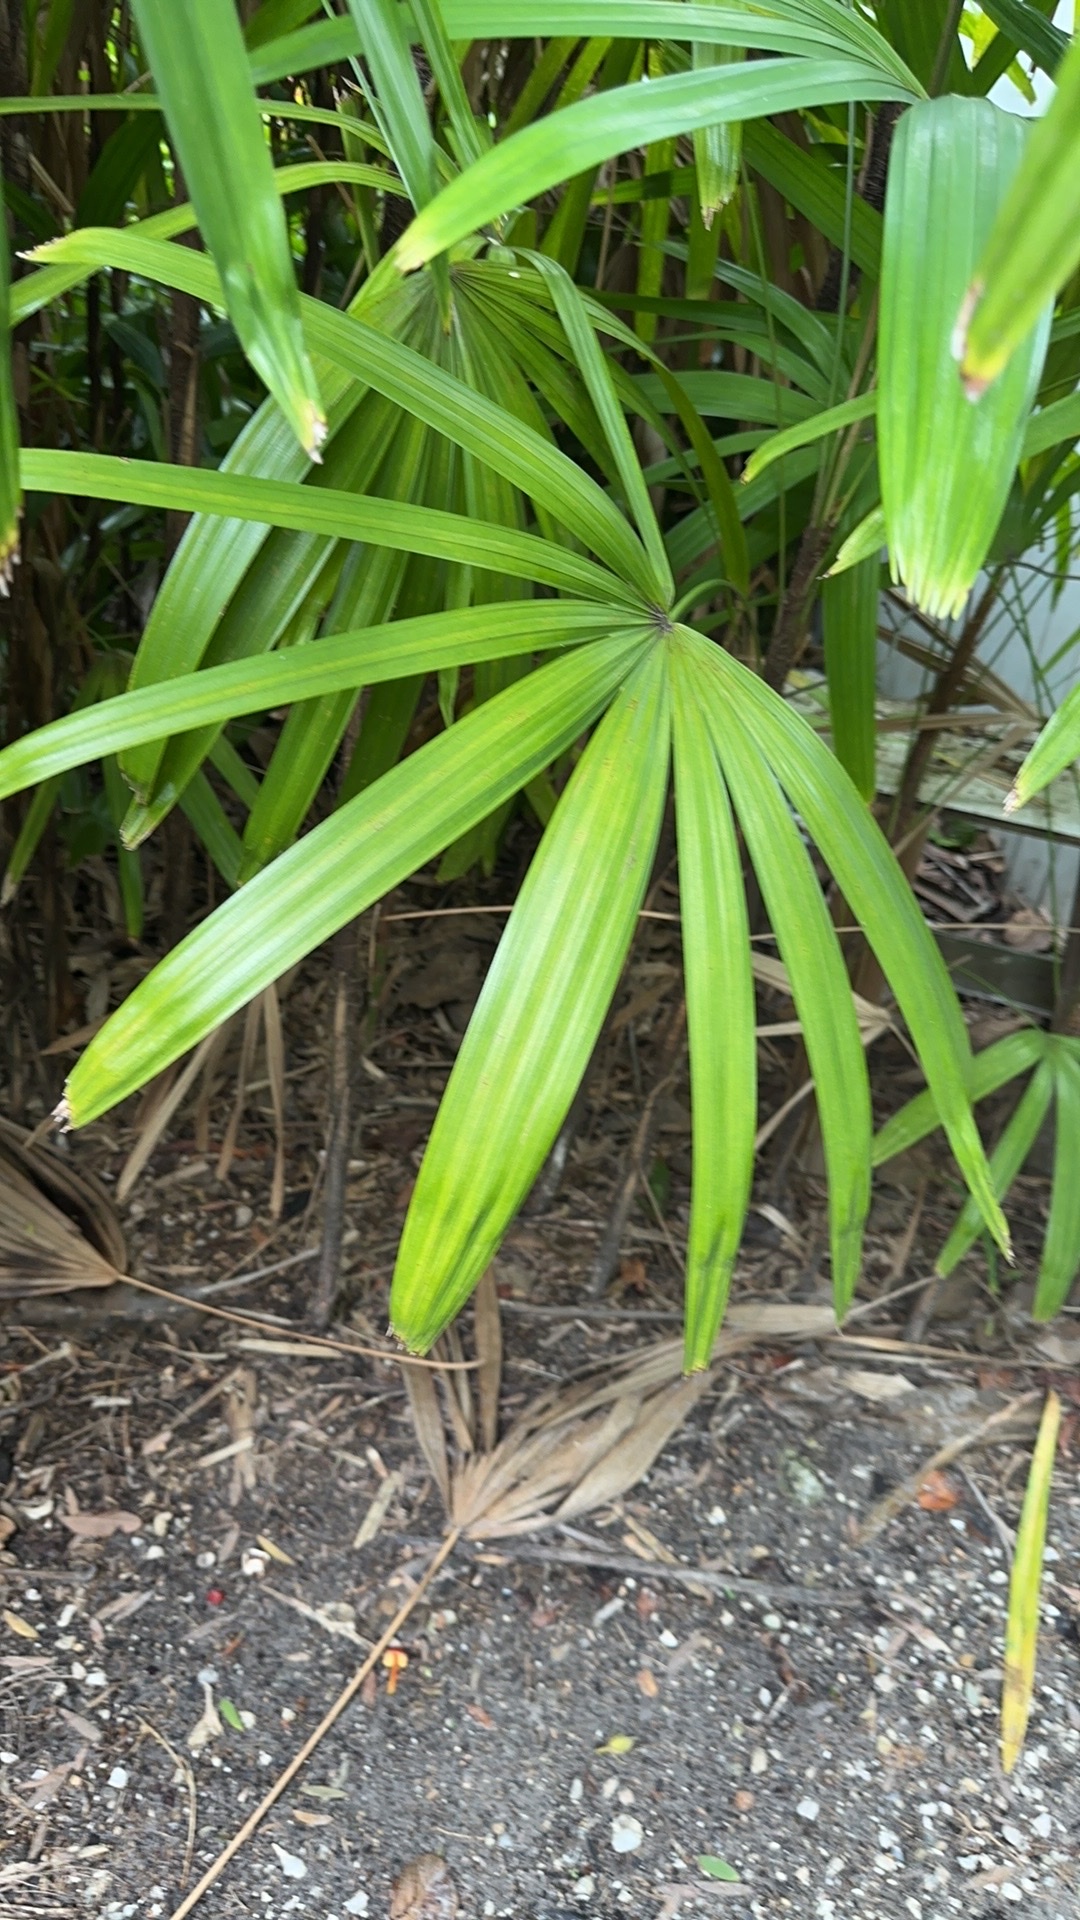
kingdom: Plantae
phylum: Tracheophyta
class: Liliopsida
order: Arecales
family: Arecaceae
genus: Rhapis
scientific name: Rhapis excelsa
